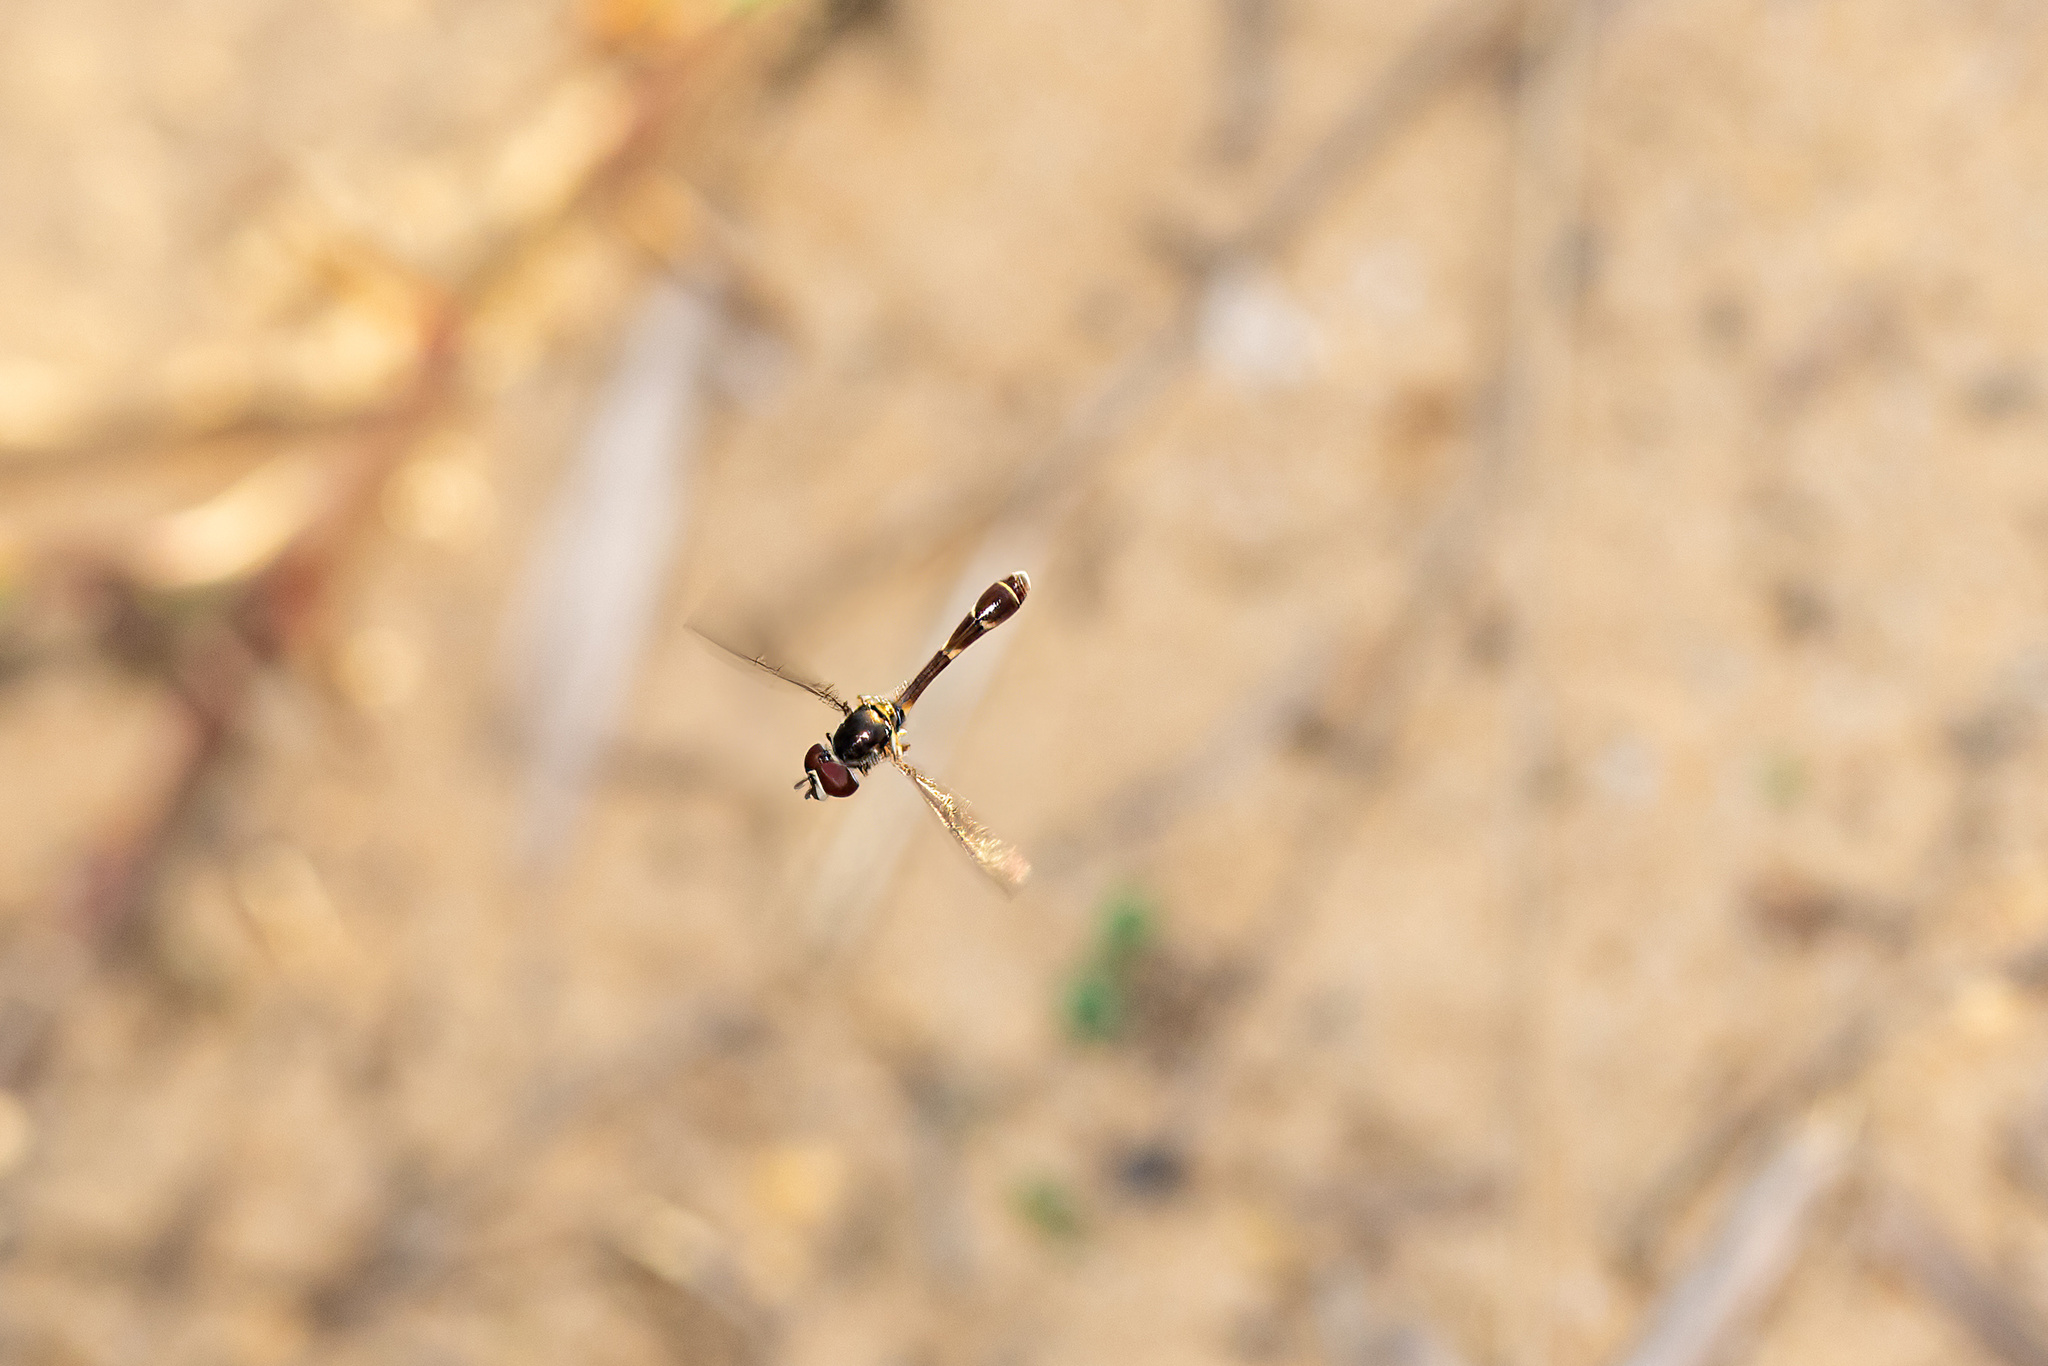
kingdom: Animalia
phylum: Arthropoda
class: Insecta
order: Diptera
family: Syrphidae
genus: Dioprosopa
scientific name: Dioprosopa clavatus
